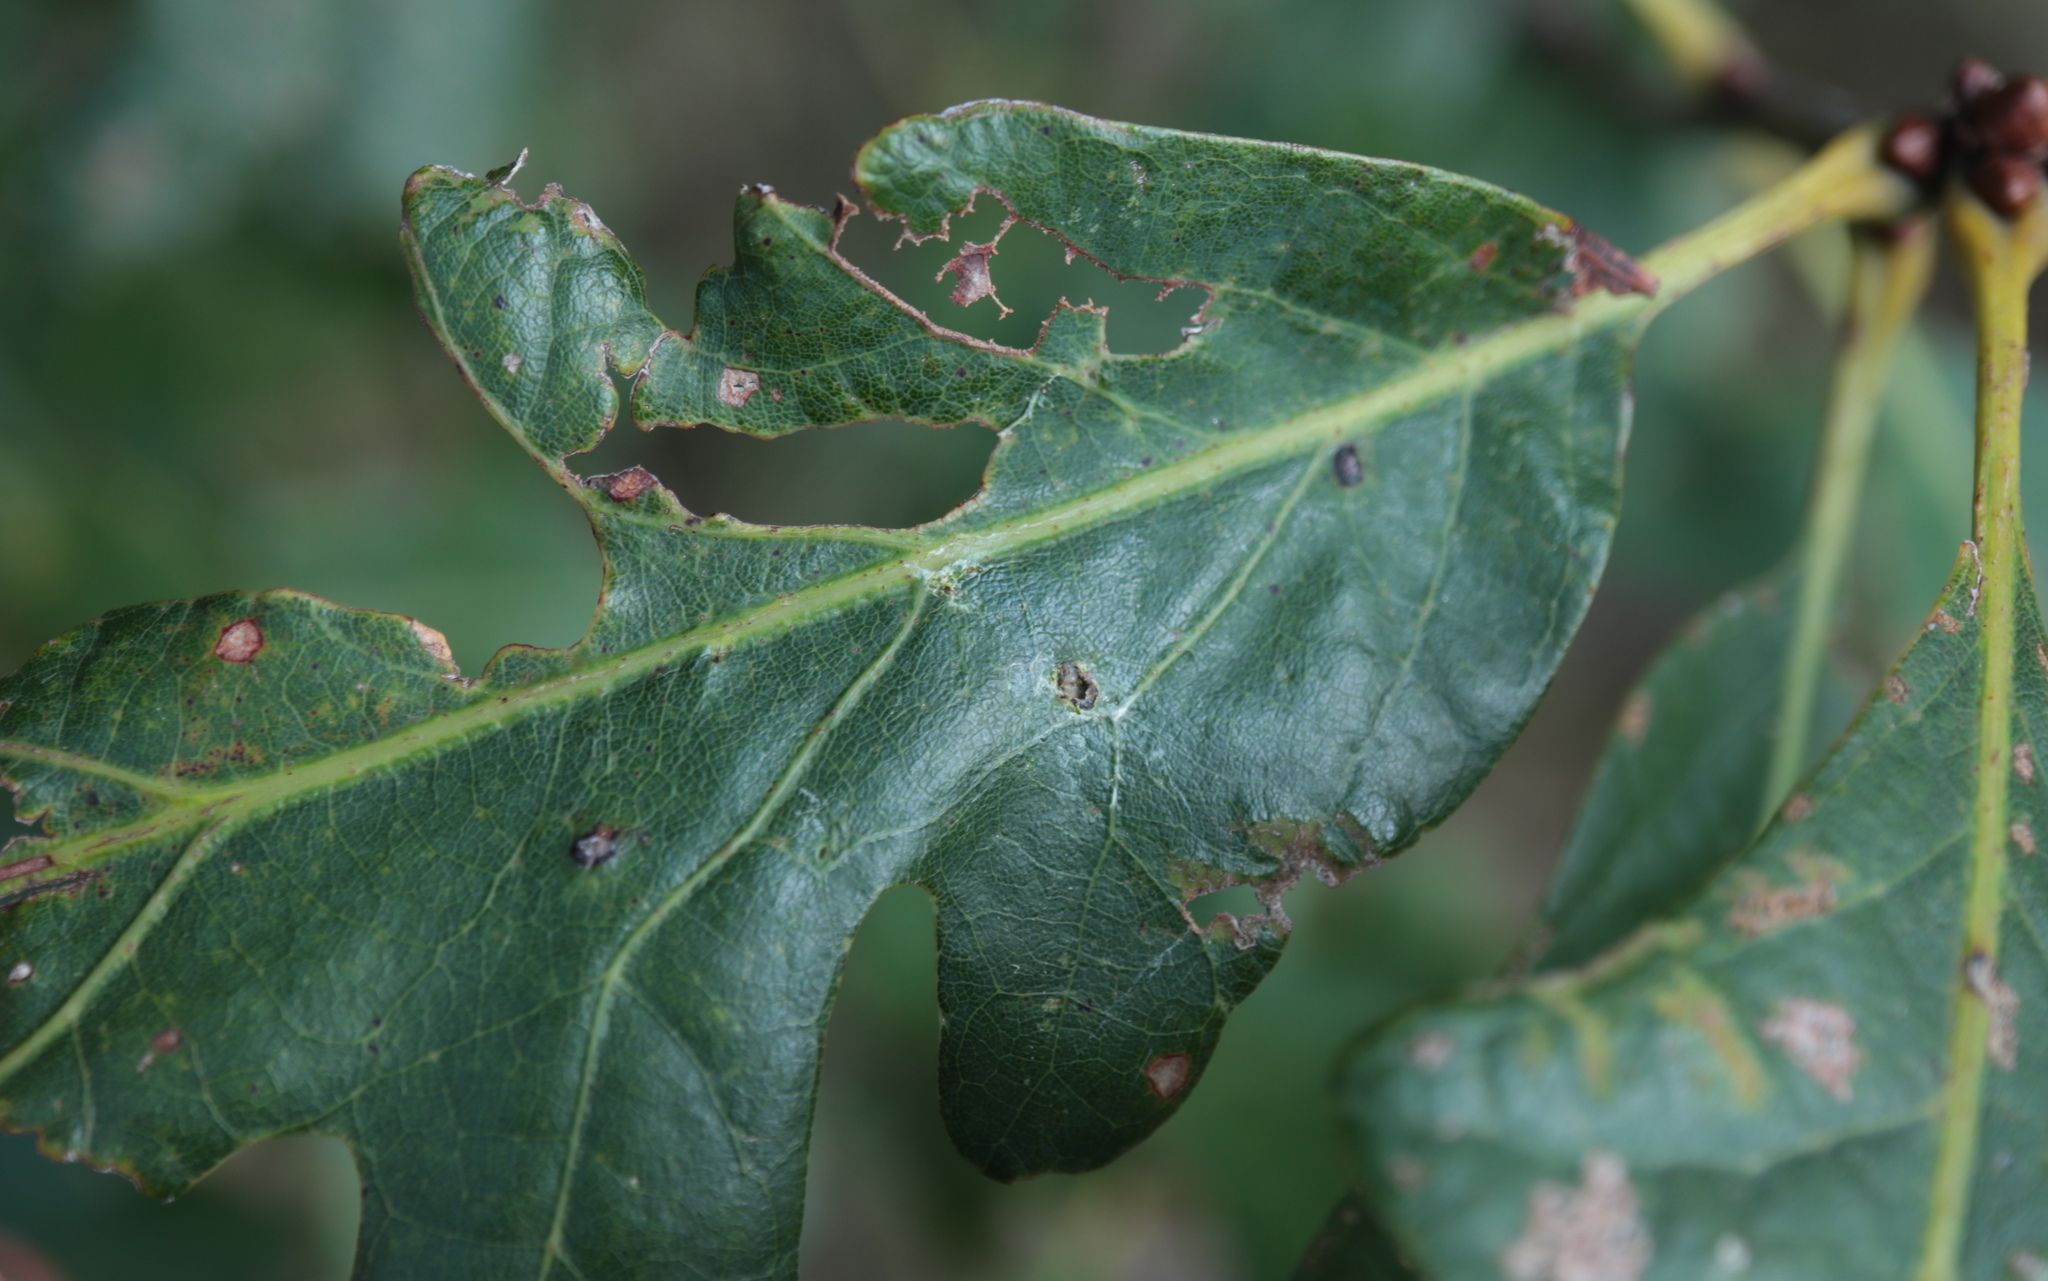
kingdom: Animalia
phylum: Arthropoda
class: Insecta
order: Hymenoptera
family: Cynipidae
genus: Neuroterus
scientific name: Neuroterus quercusverrucarum
